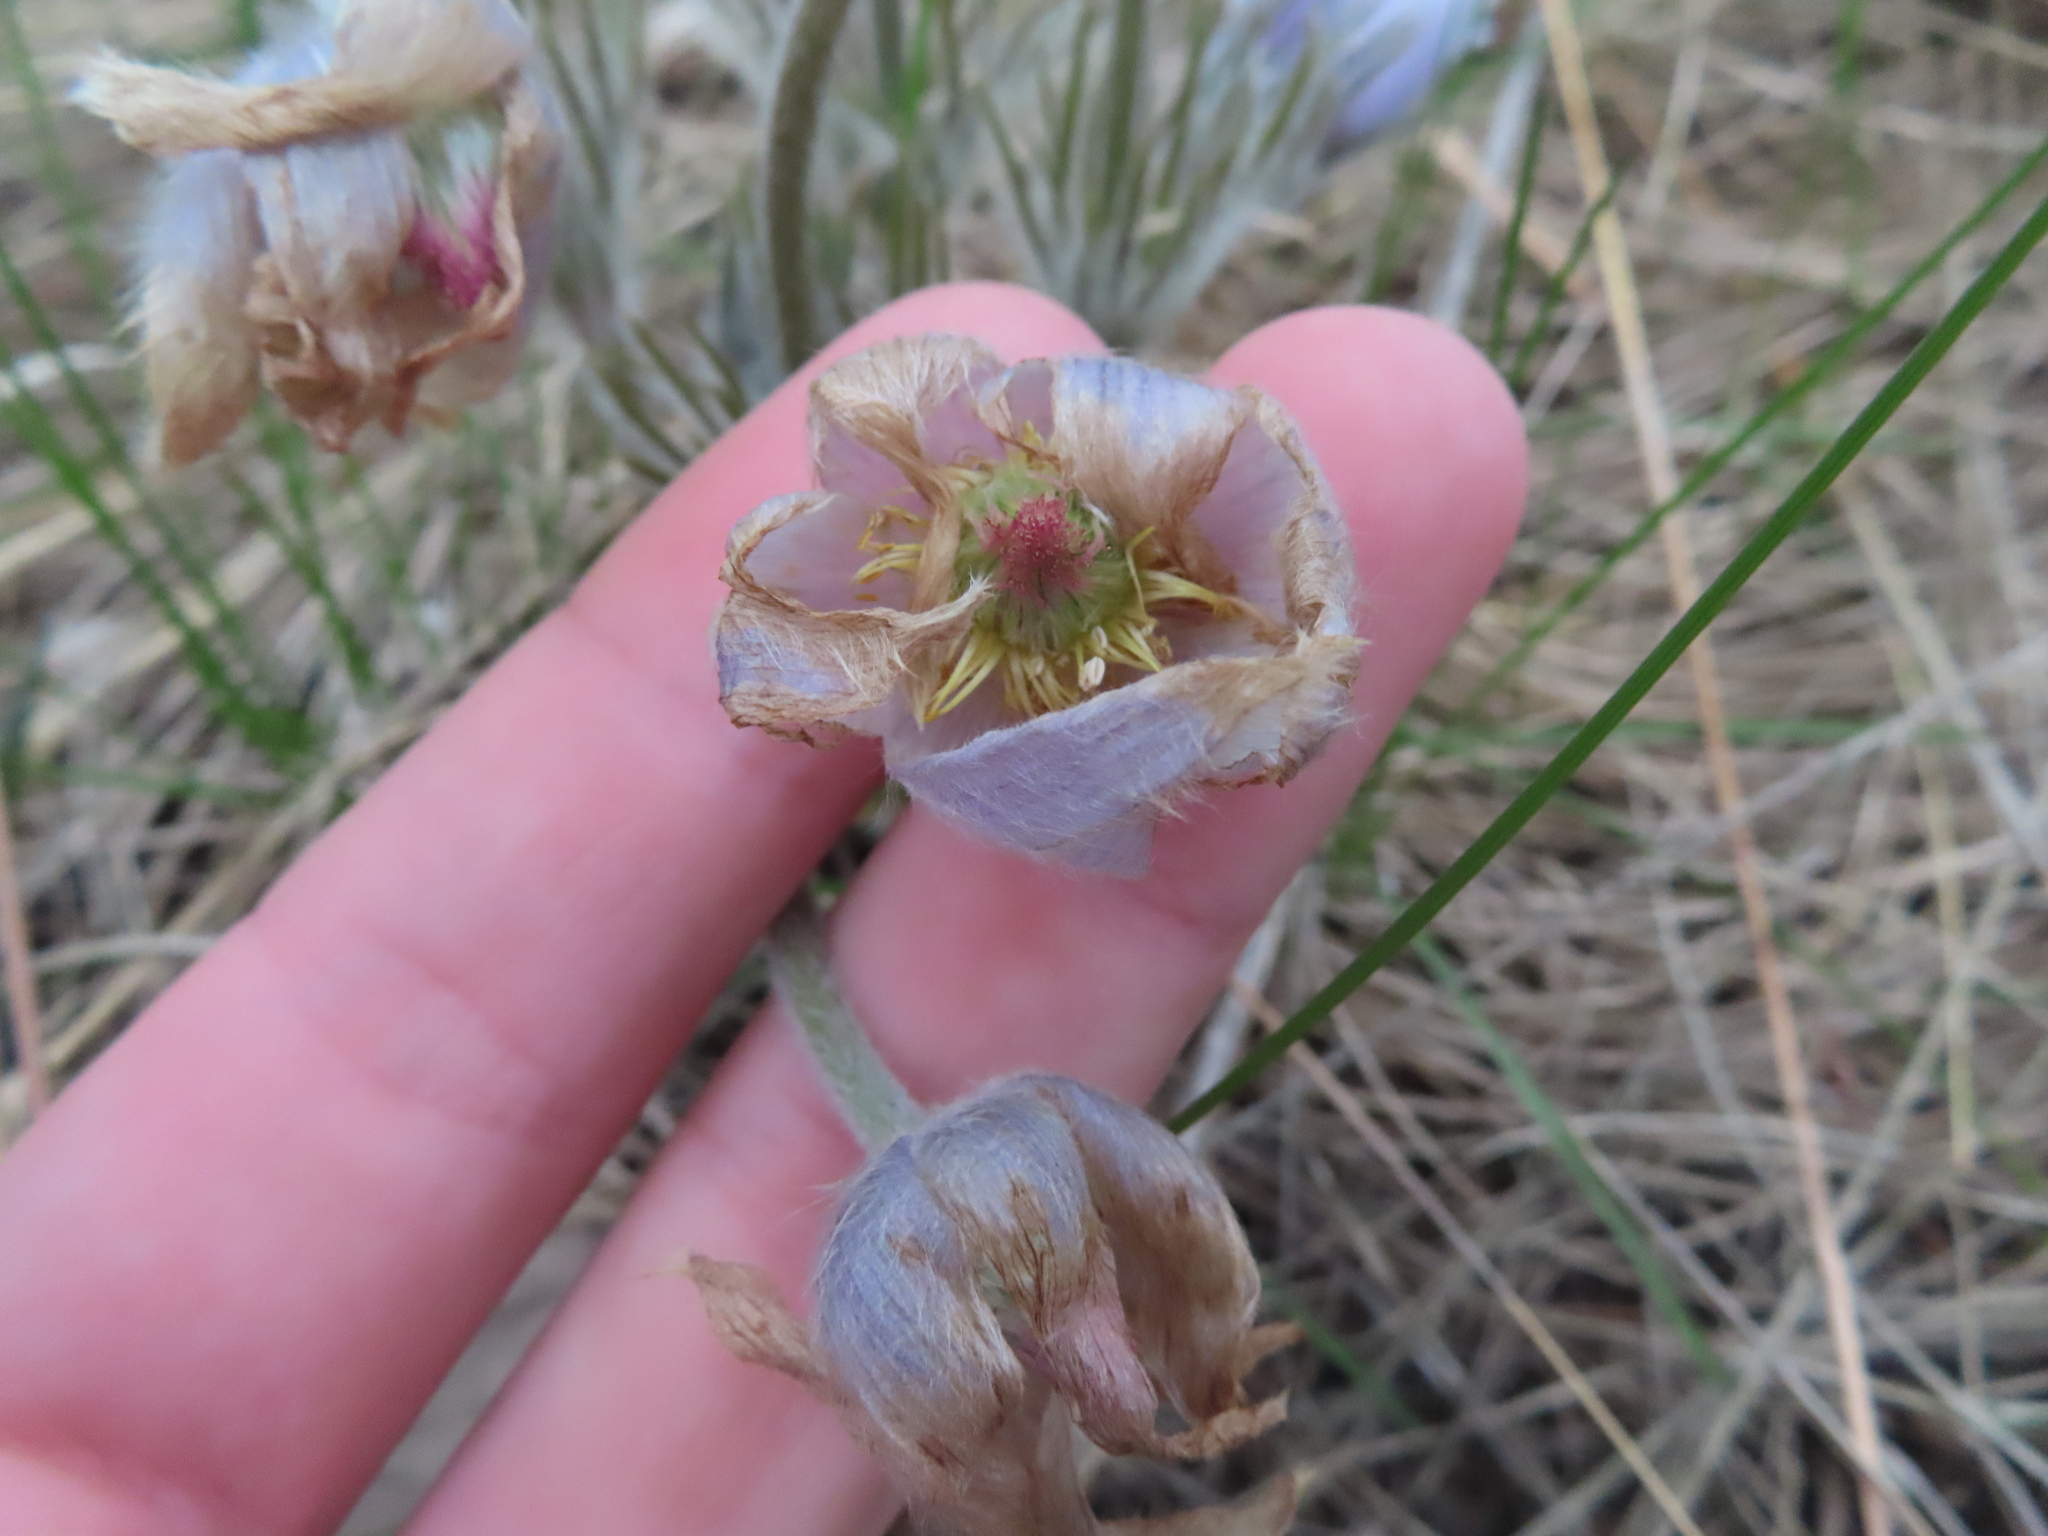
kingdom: Plantae
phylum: Tracheophyta
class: Magnoliopsida
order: Ranunculales
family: Ranunculaceae
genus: Pulsatilla
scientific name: Pulsatilla nuttalliana
